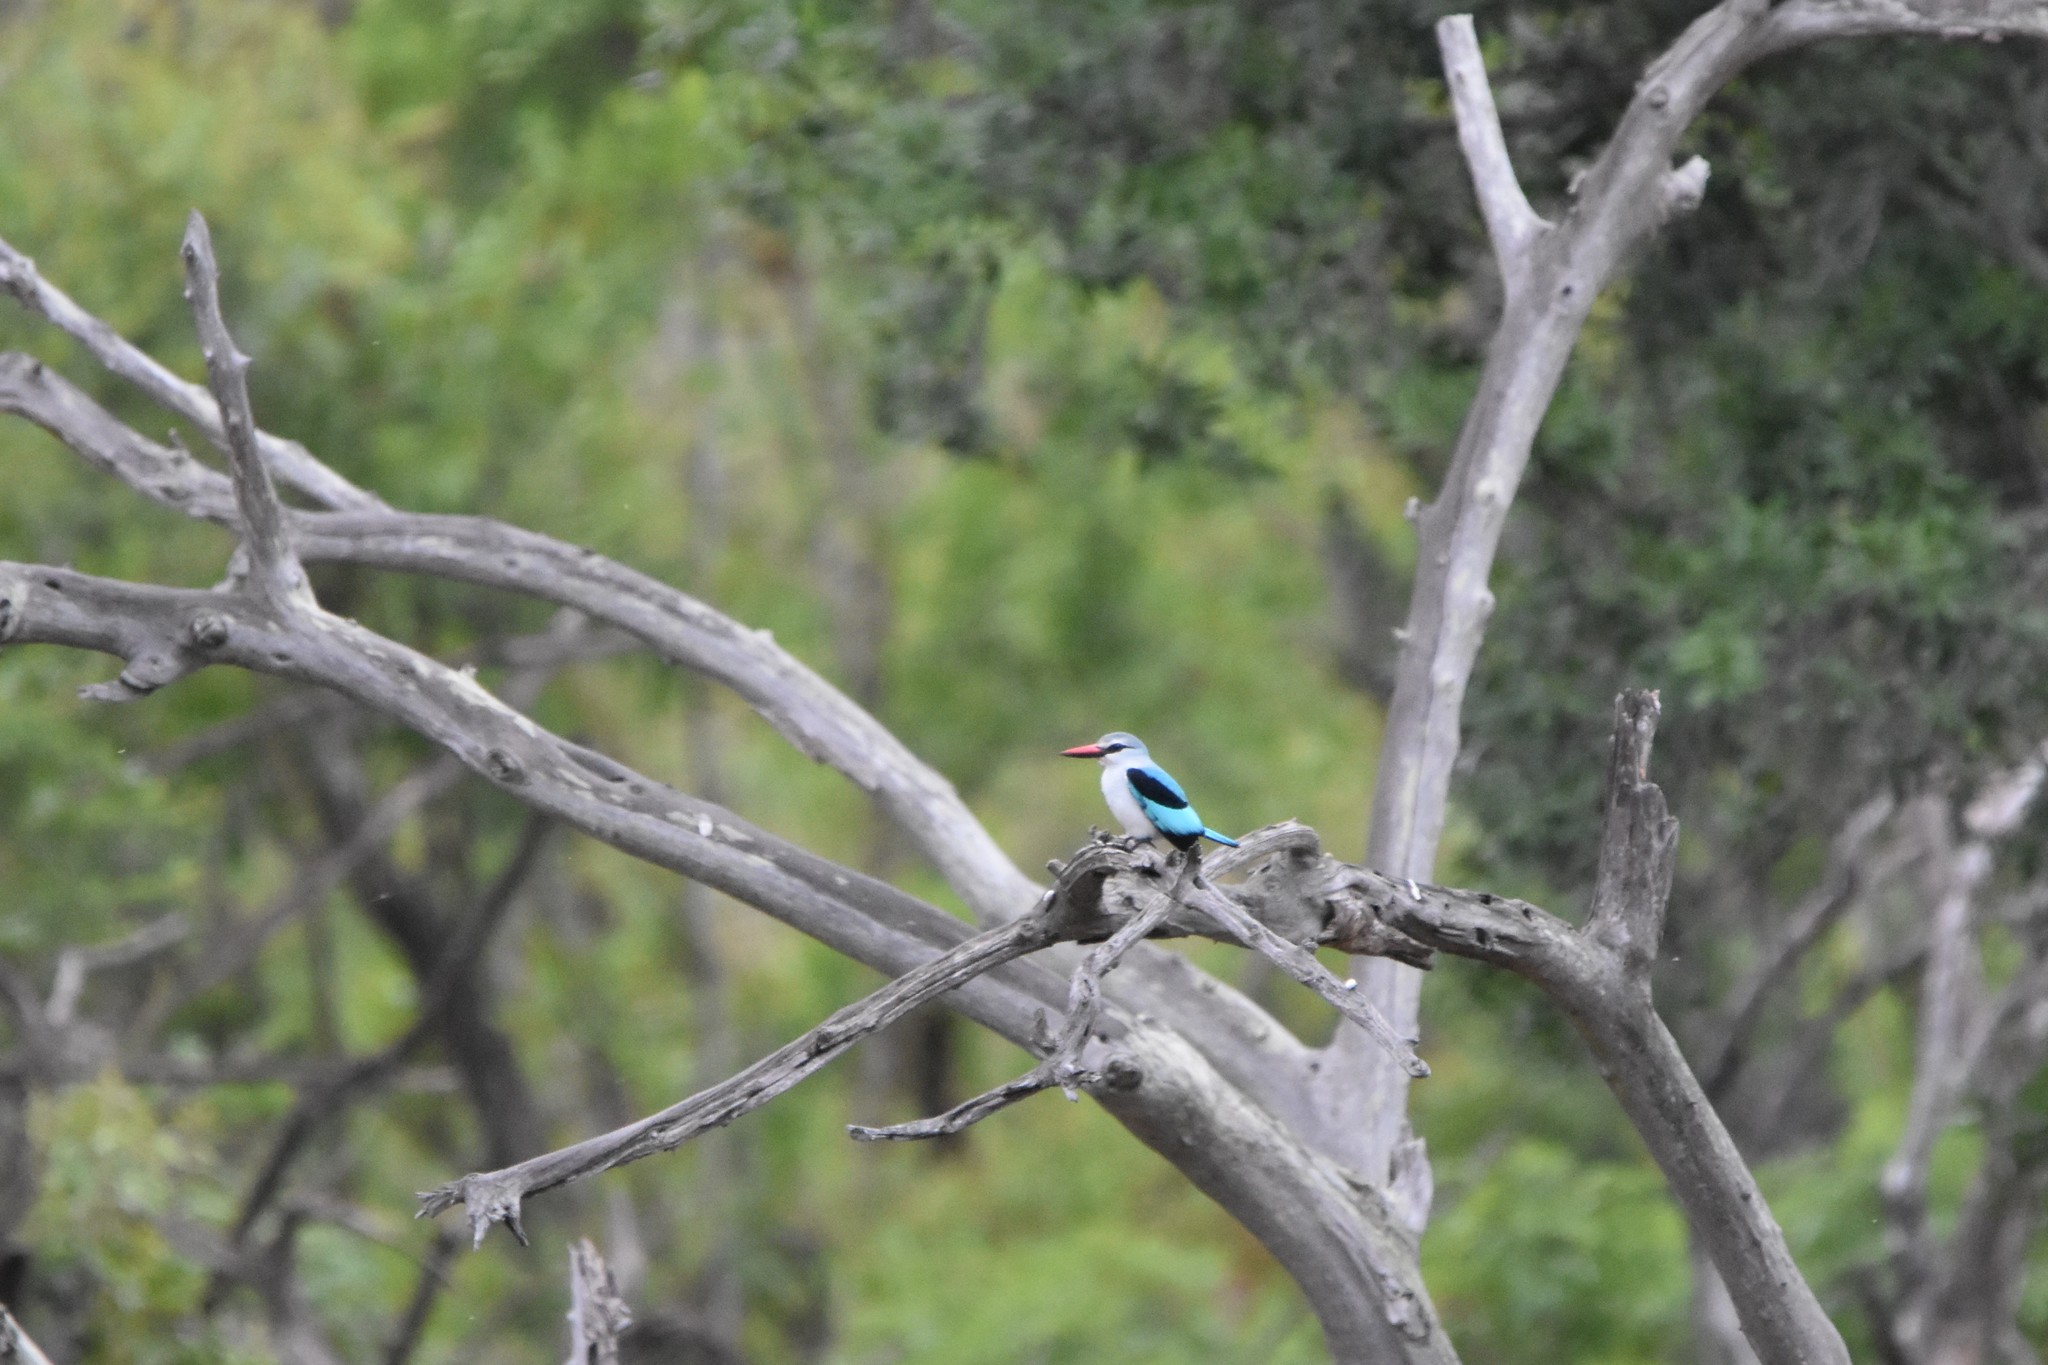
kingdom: Animalia
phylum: Chordata
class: Aves
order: Coraciiformes
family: Alcedinidae
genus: Halcyon
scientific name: Halcyon senegalensis
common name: Woodland kingfisher
